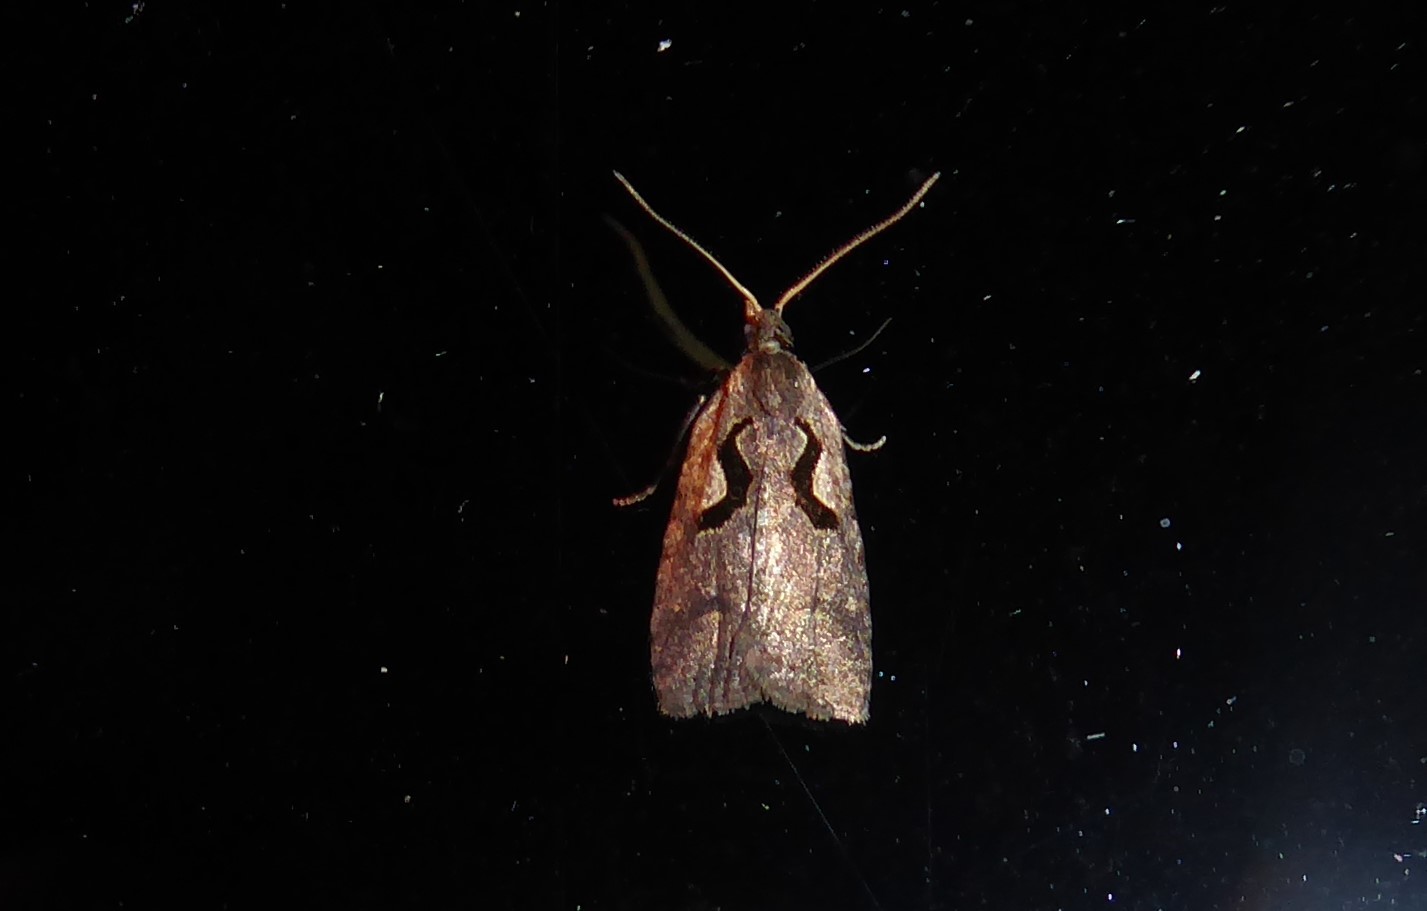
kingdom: Animalia
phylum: Arthropoda
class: Insecta
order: Lepidoptera
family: Tortricidae
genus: Cnephasia
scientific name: Cnephasia jactatana
